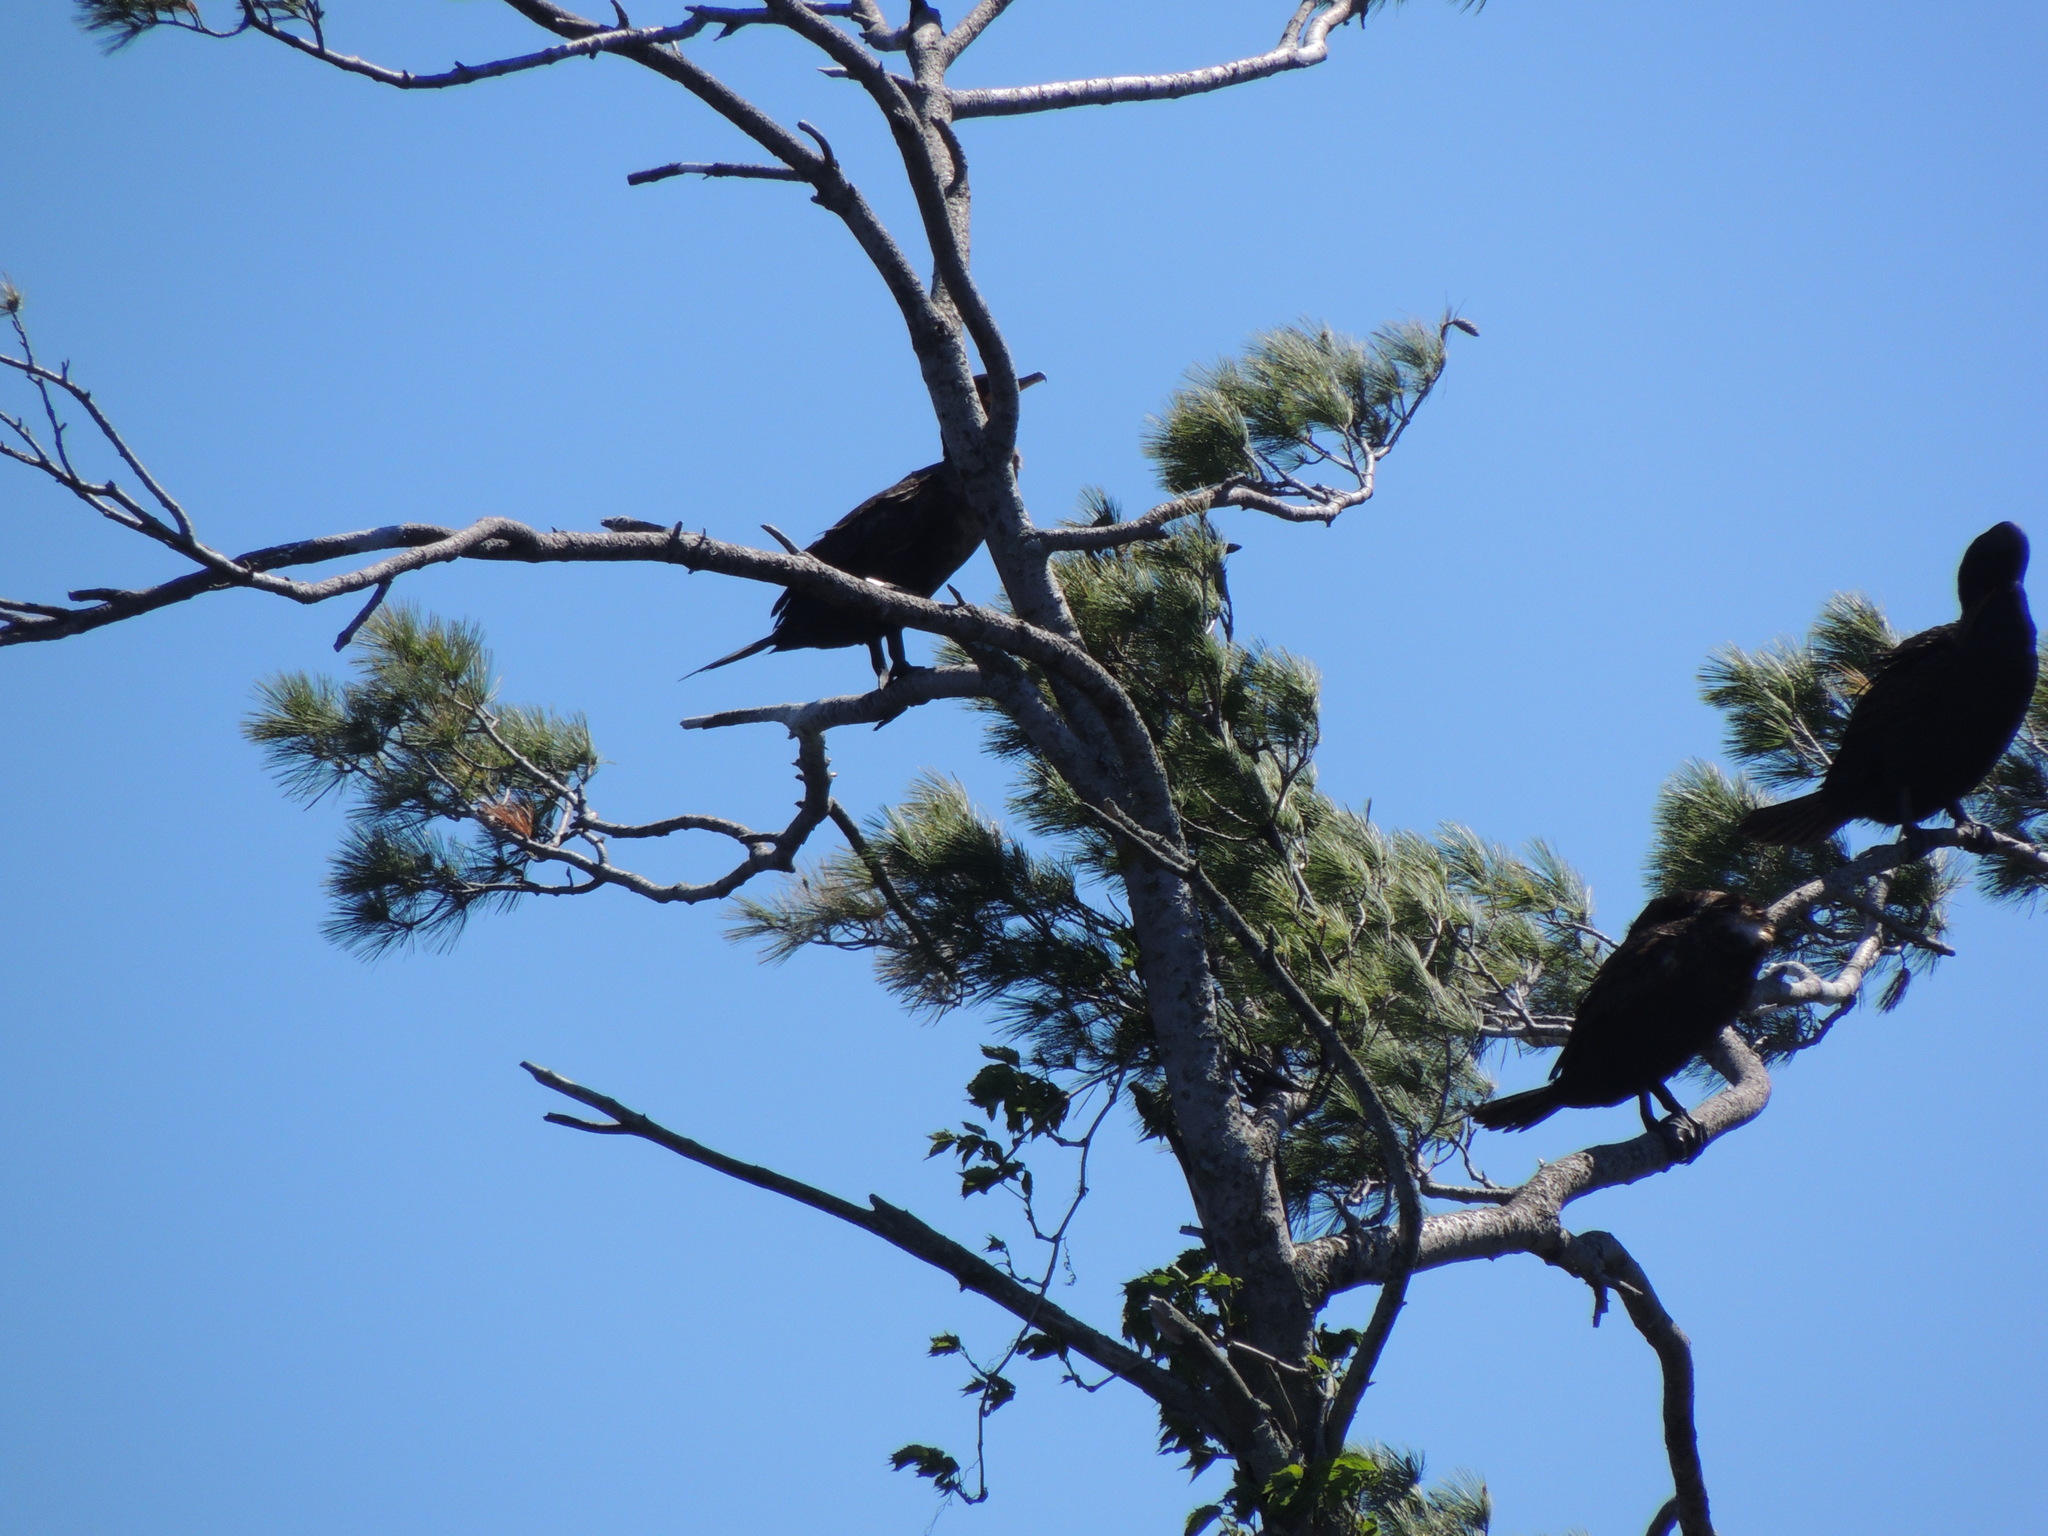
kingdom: Animalia
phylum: Chordata
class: Aves
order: Suliformes
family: Phalacrocoracidae
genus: Phalacrocorax
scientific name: Phalacrocorax auritus
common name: Double-crested cormorant
